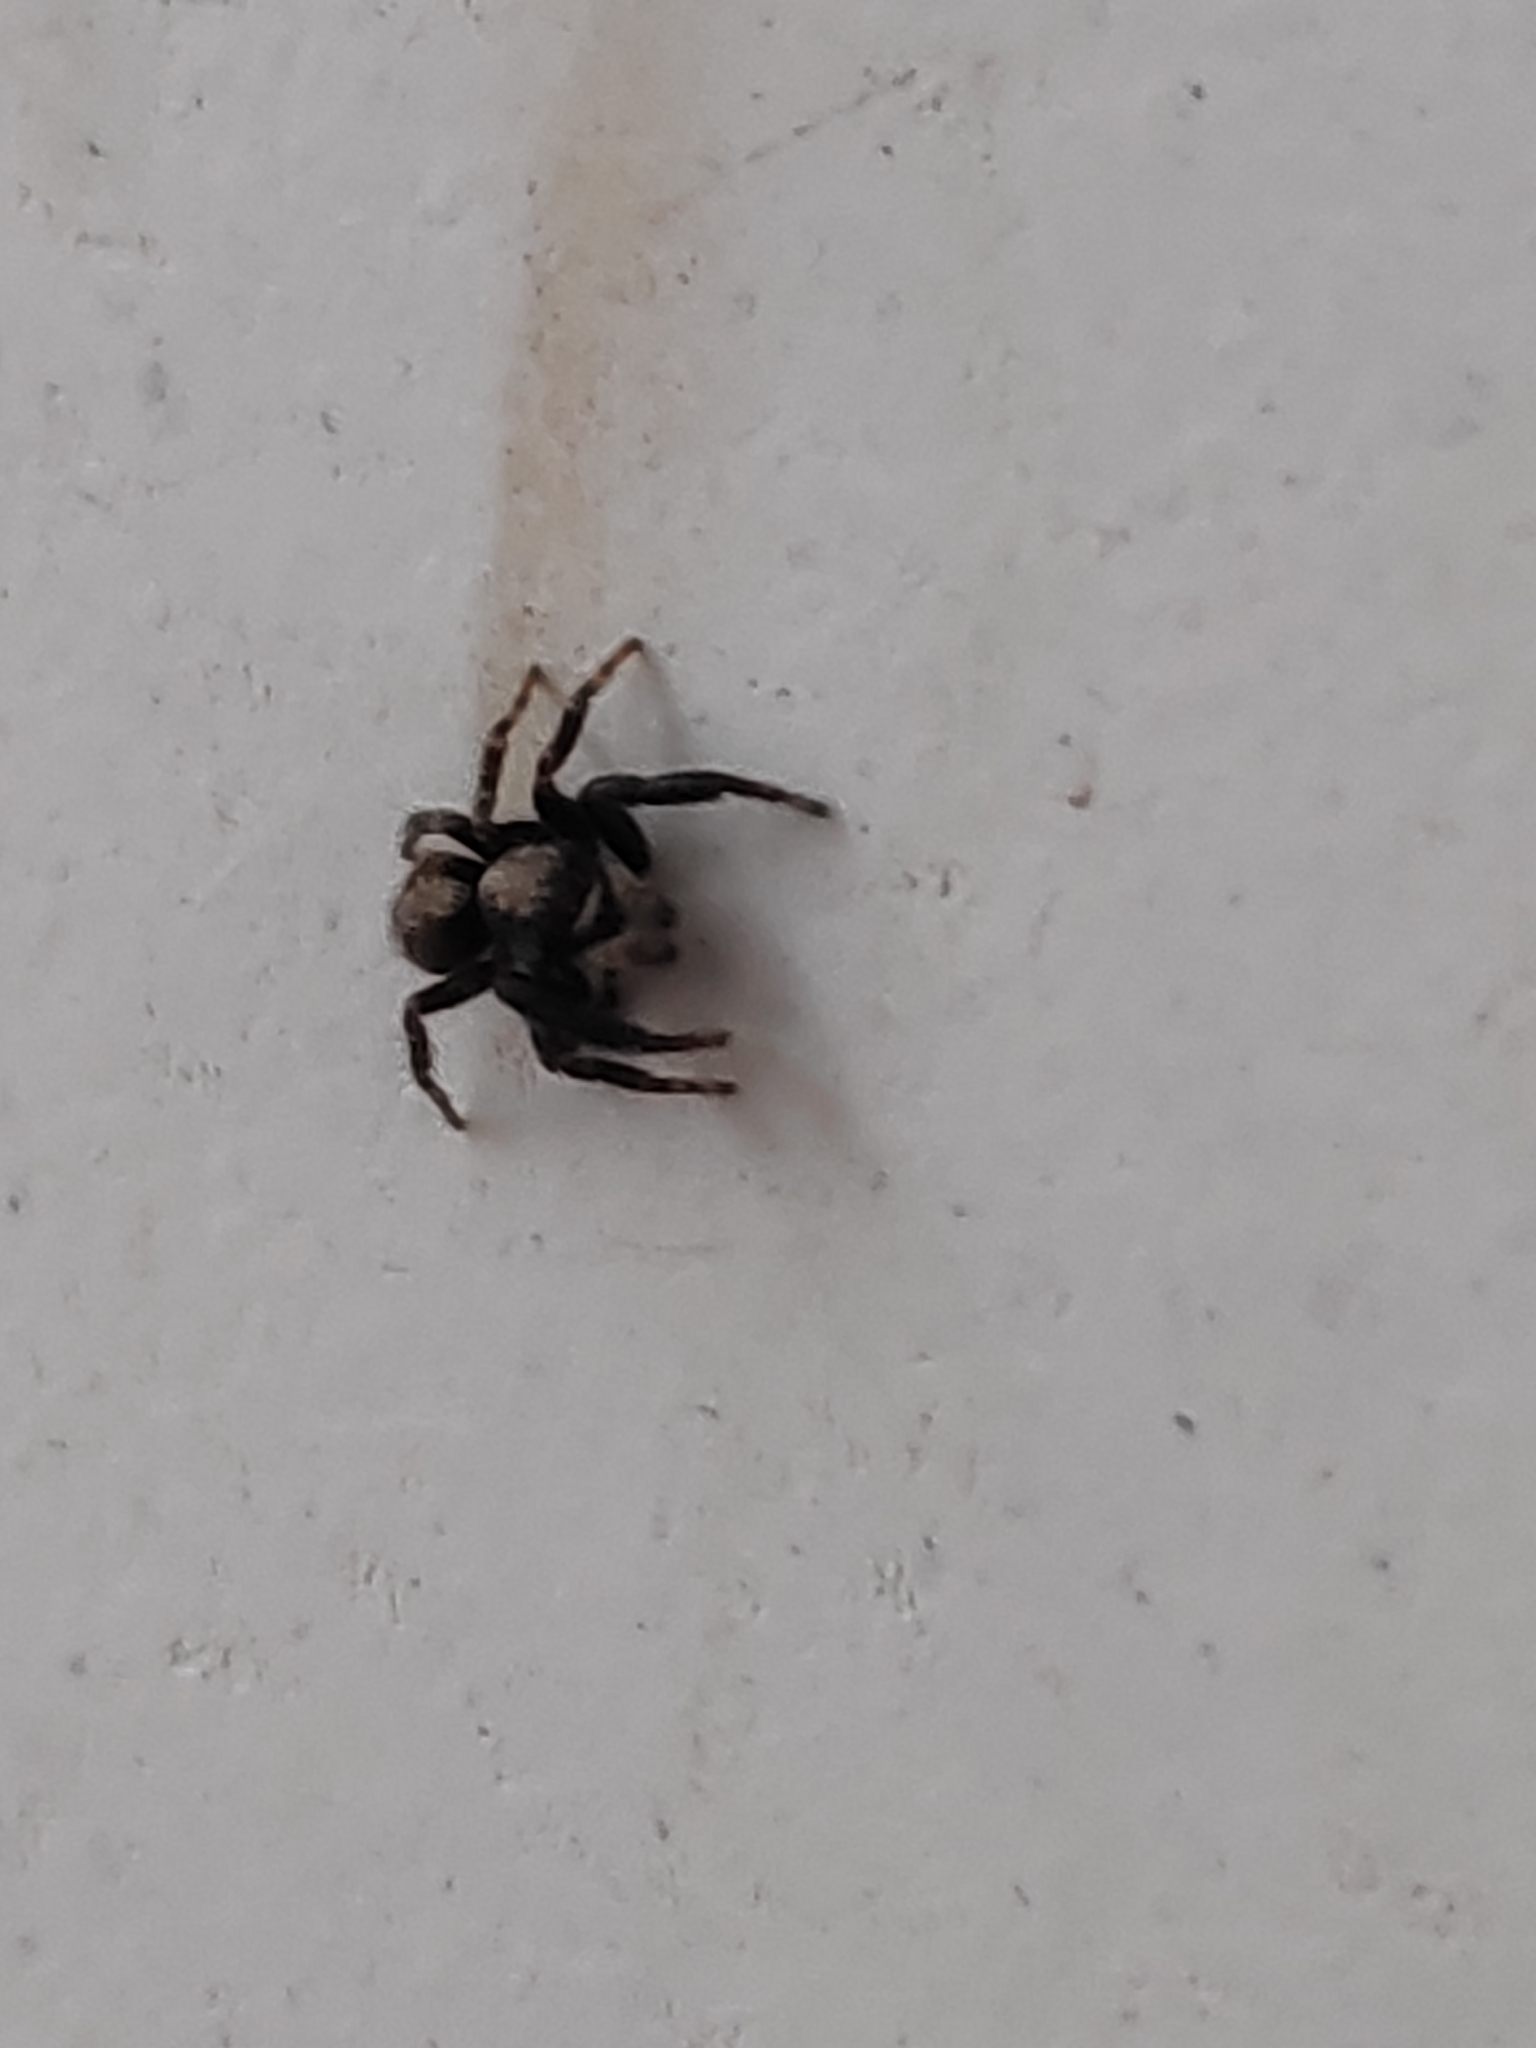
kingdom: Animalia
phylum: Arthropoda
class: Arachnida
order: Araneae
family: Salticidae
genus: Pseudeuophrys
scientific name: Pseudeuophrys lanigera
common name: Jumping spider
